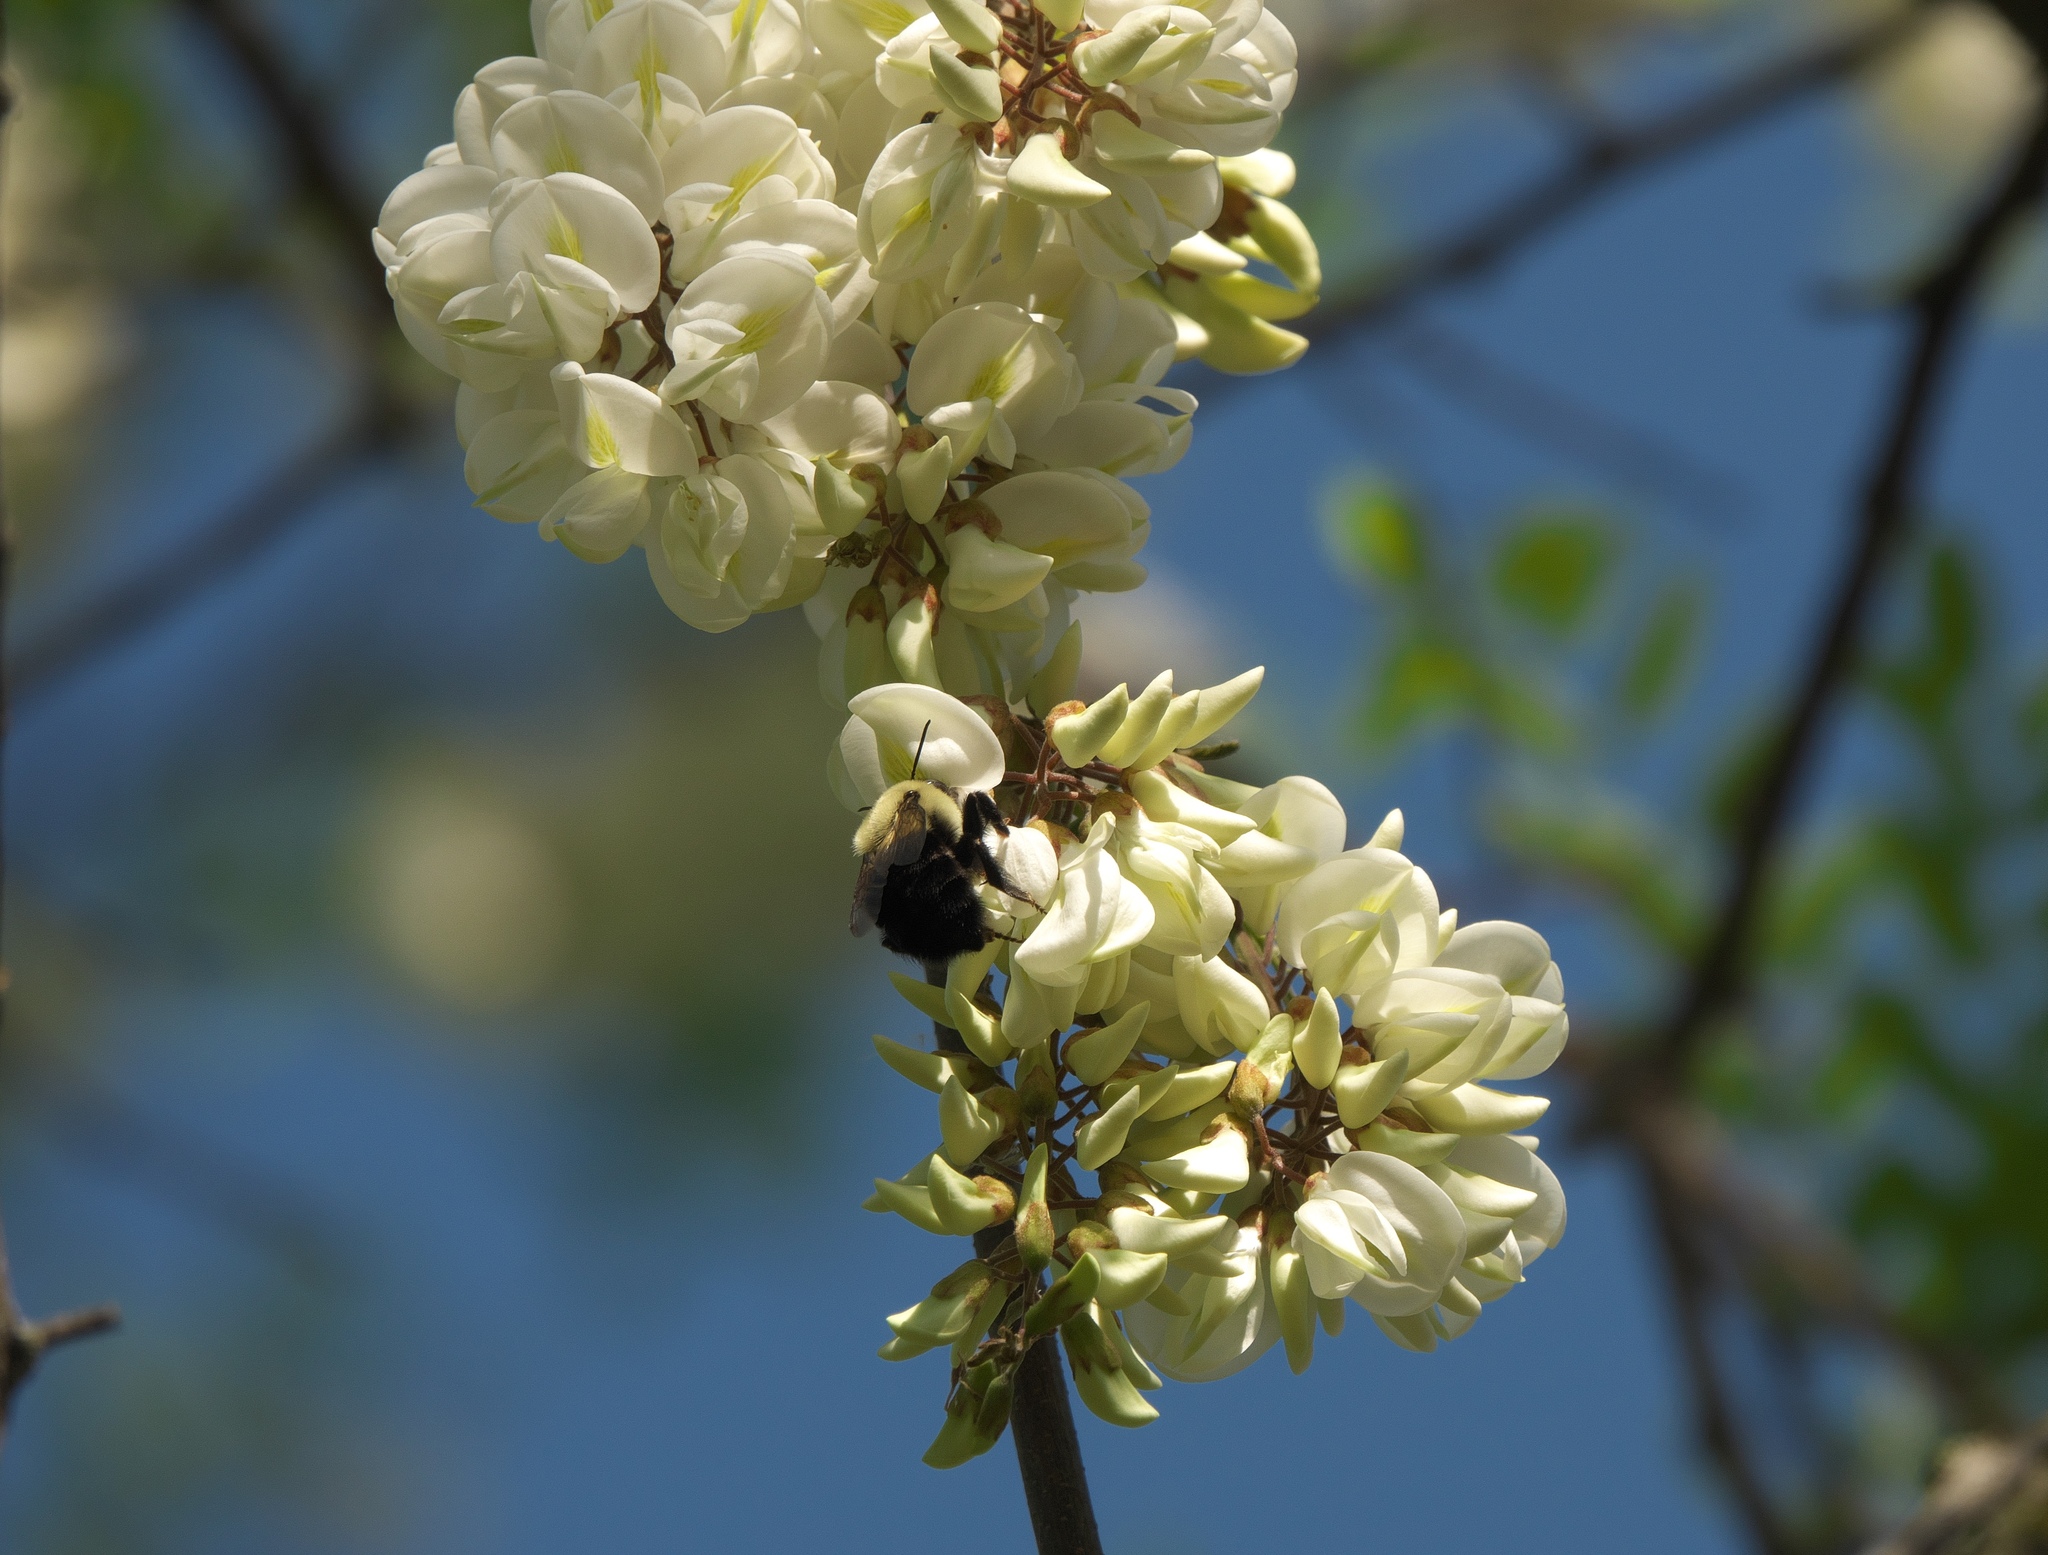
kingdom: Plantae
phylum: Tracheophyta
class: Magnoliopsida
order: Fabales
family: Fabaceae
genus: Robinia
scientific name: Robinia pseudoacacia
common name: Black locust
